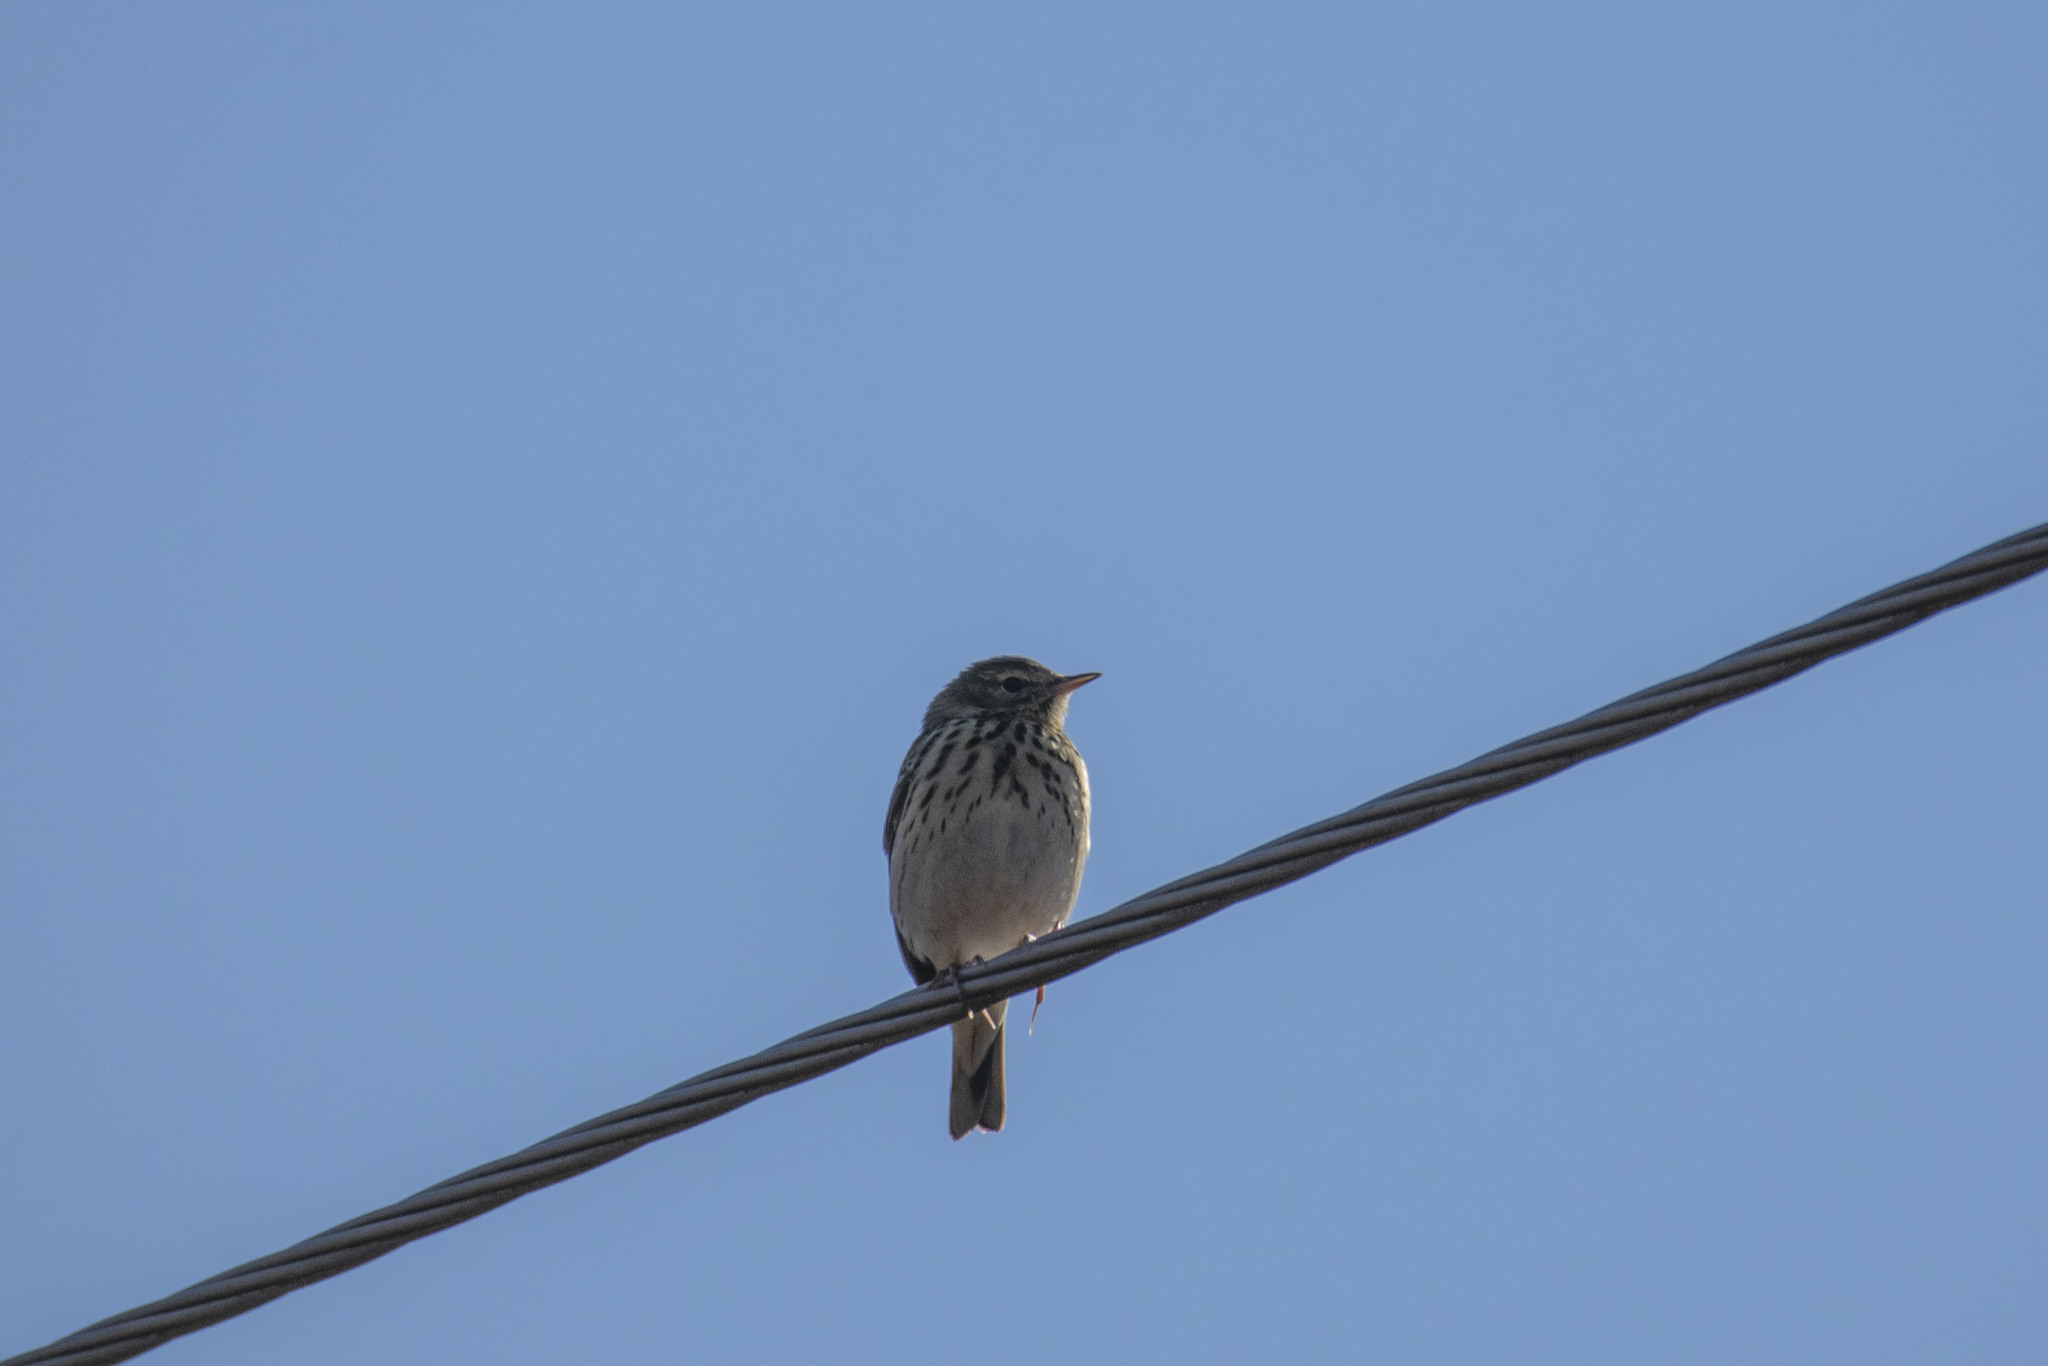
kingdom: Animalia
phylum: Chordata
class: Aves
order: Passeriformes
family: Motacillidae
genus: Anthus
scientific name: Anthus trivialis
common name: Tree pipit
